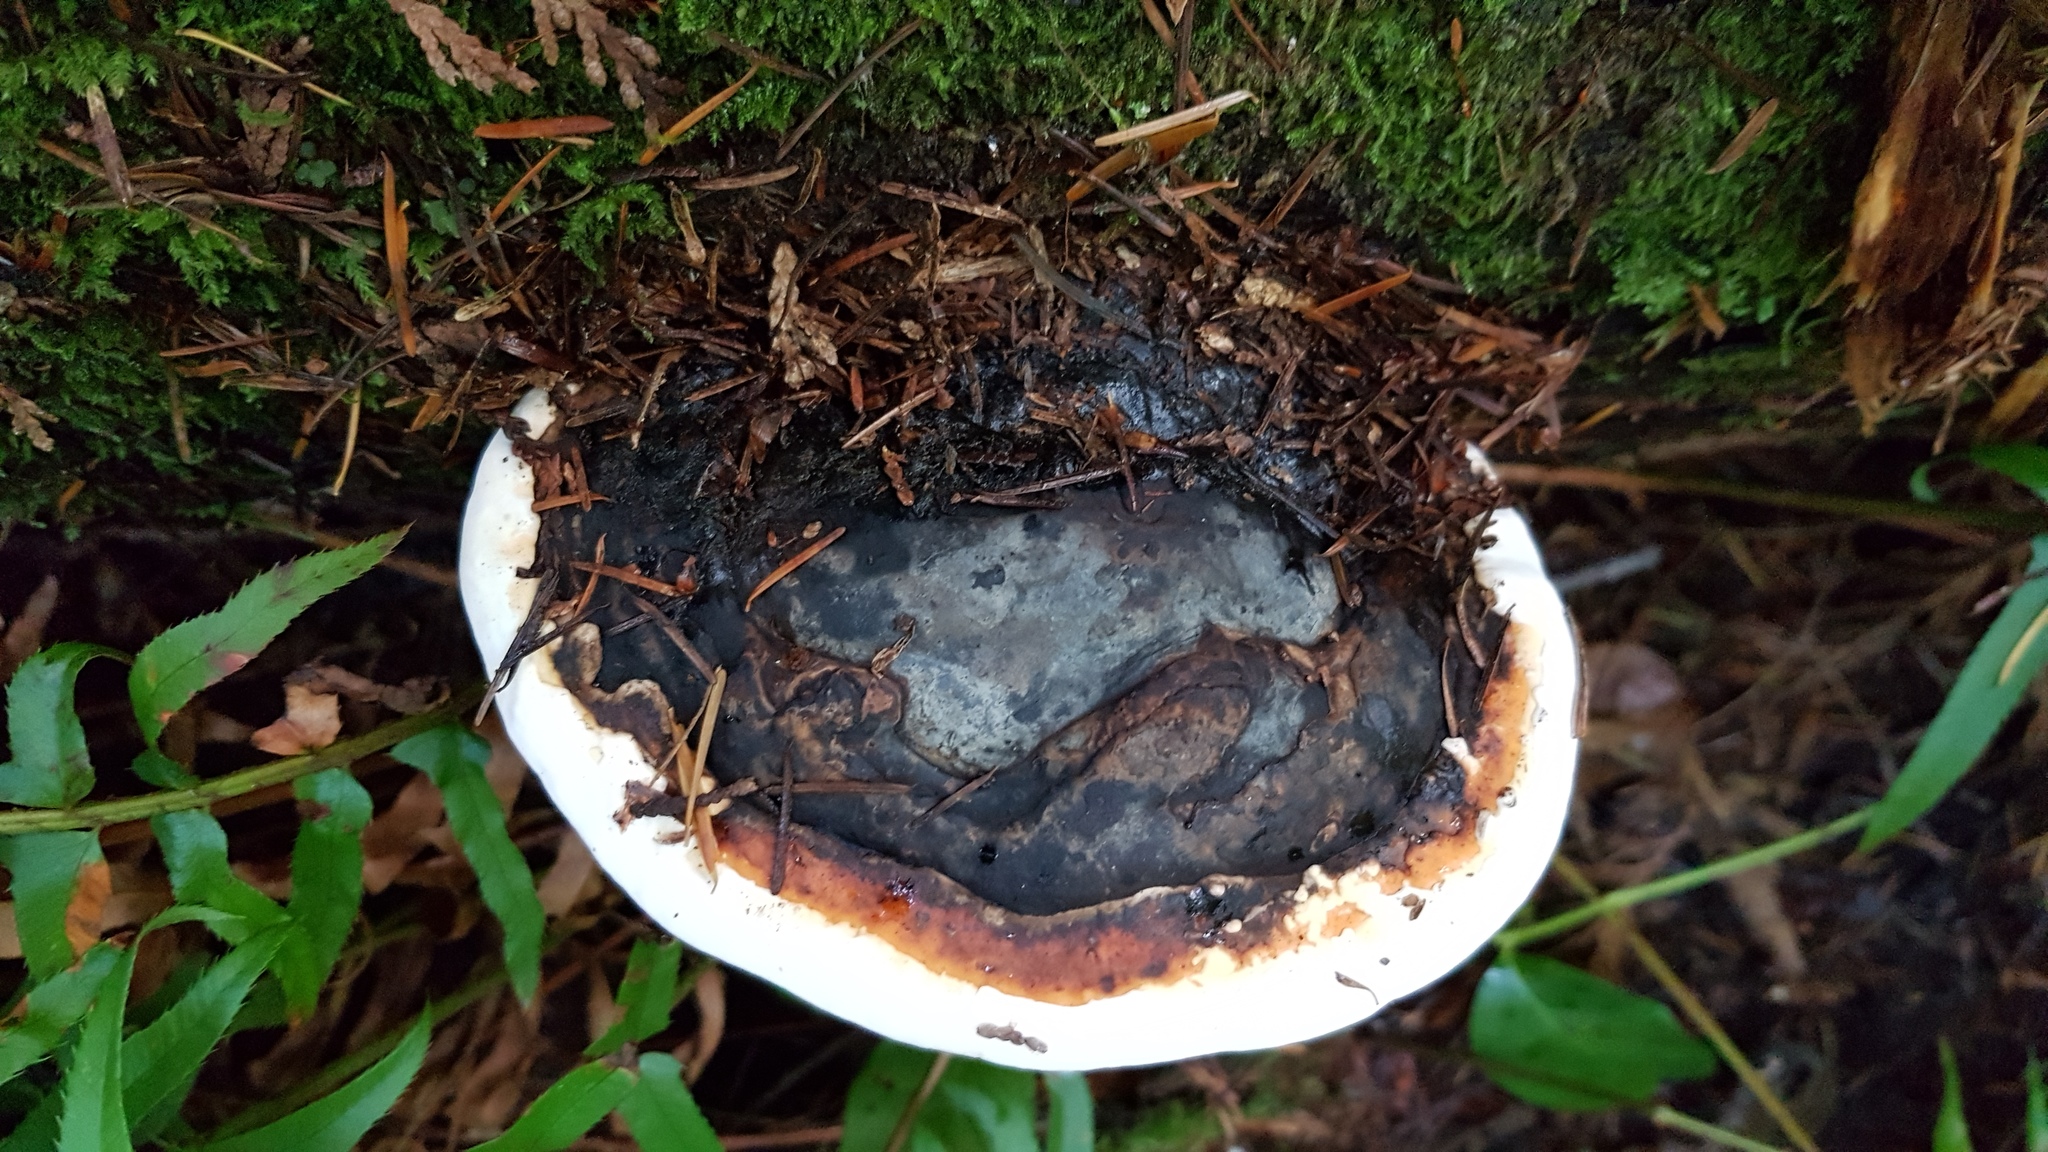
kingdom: Fungi
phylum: Basidiomycota
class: Agaricomycetes
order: Polyporales
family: Fomitopsidaceae
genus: Fomitopsis
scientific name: Fomitopsis mounceae
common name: Northern red belt
